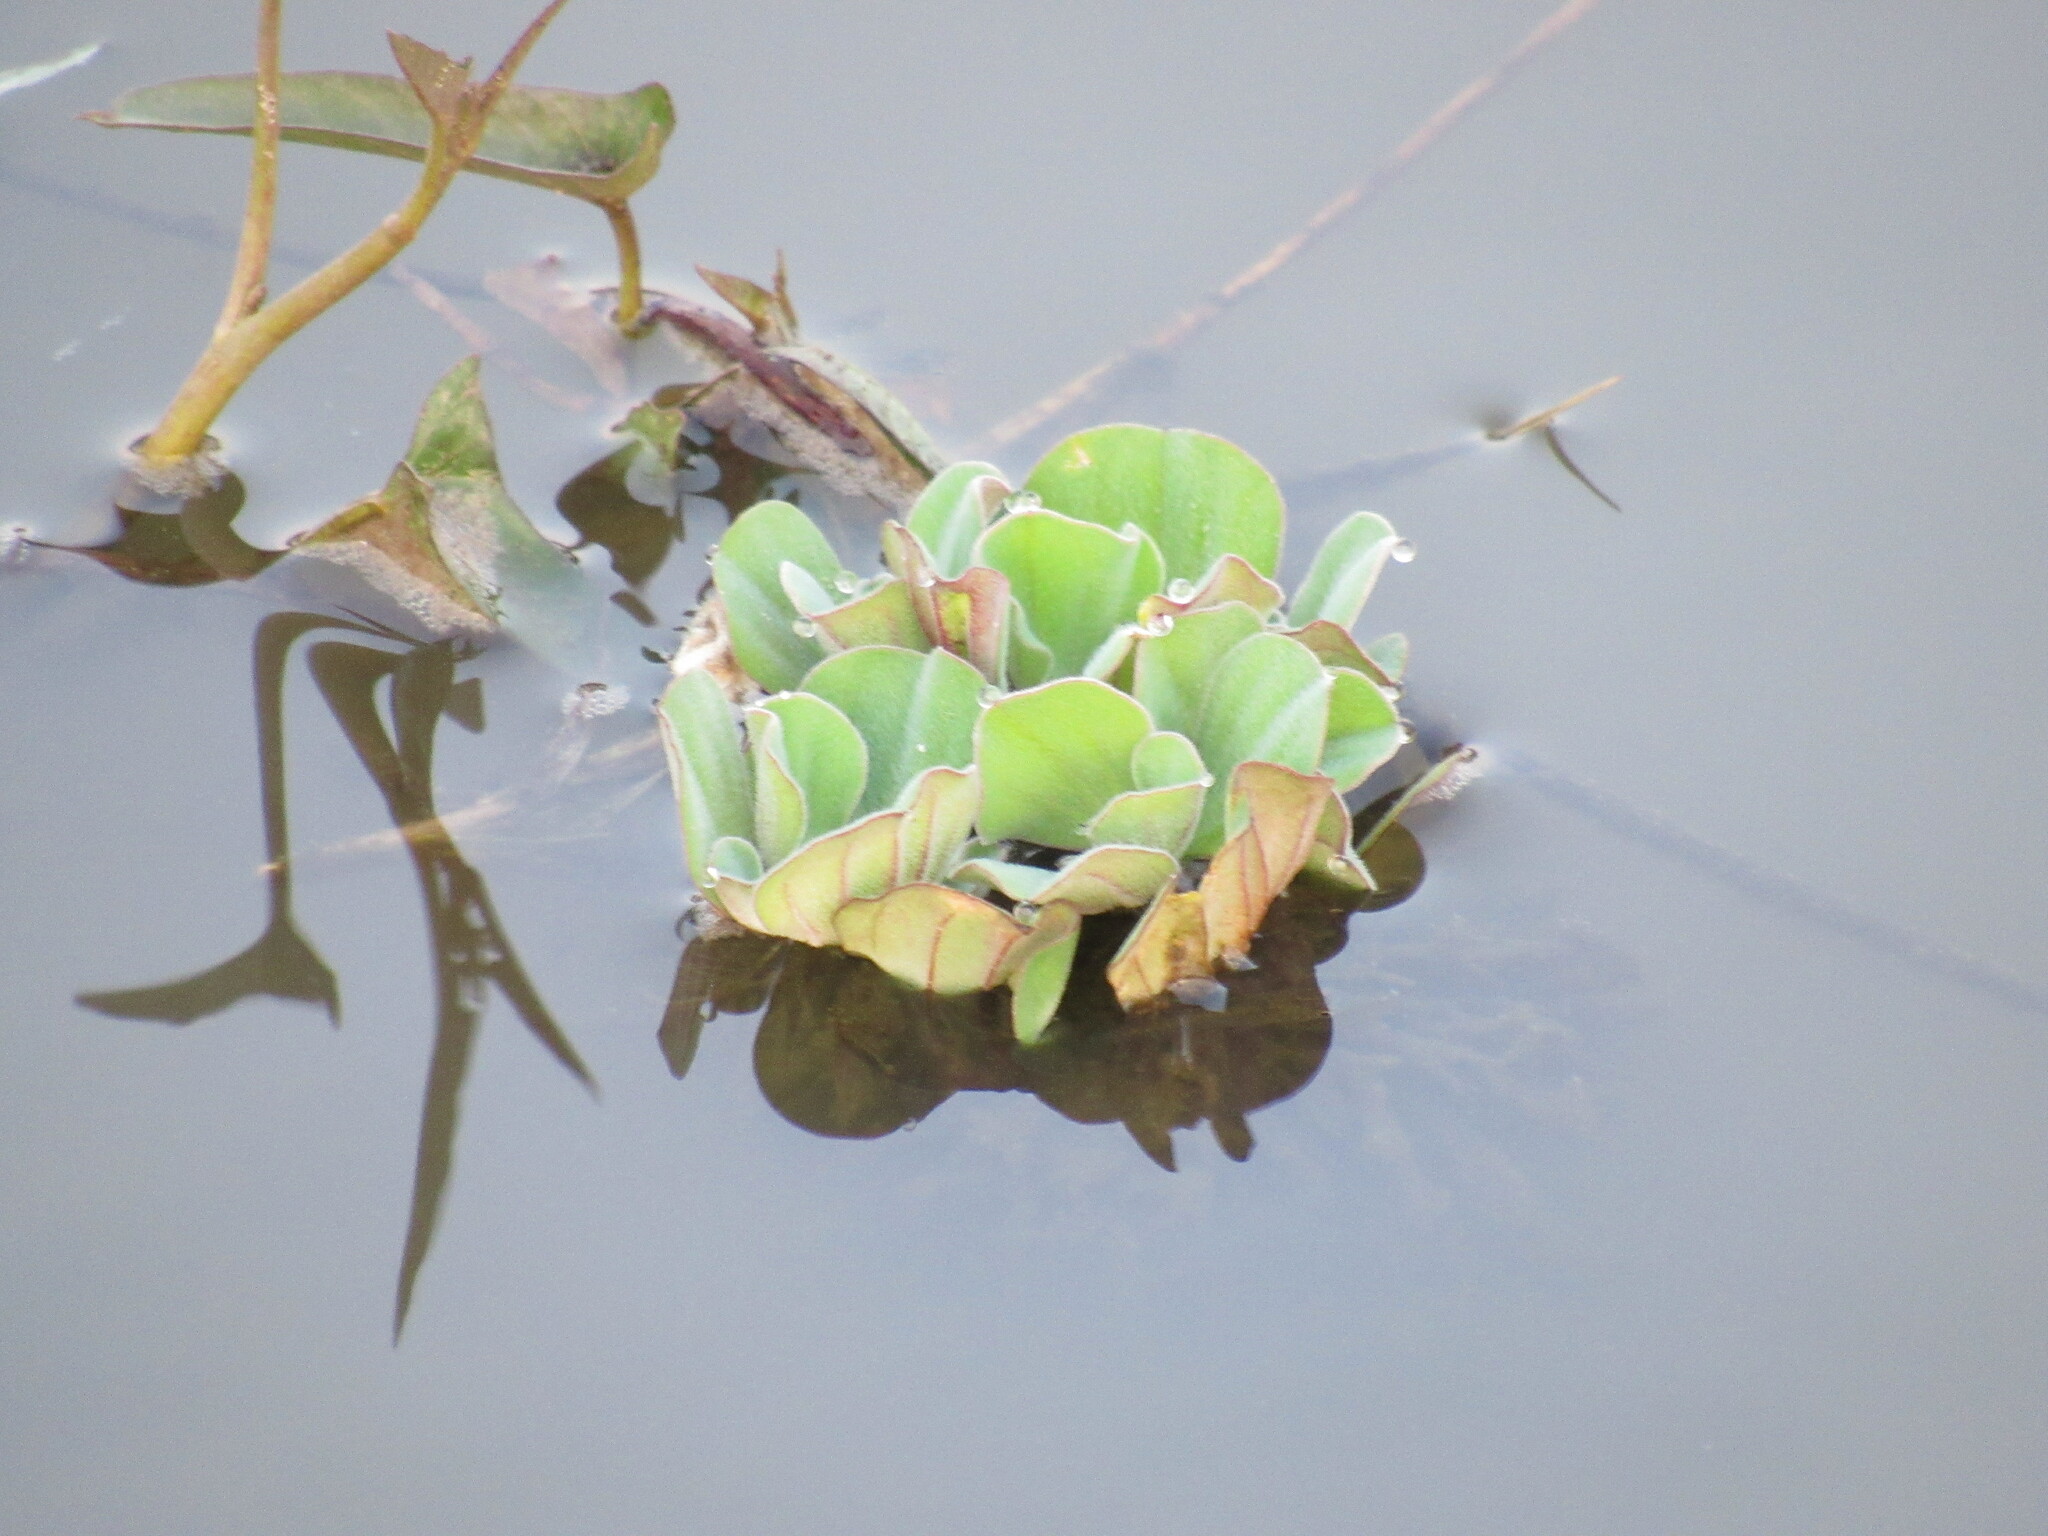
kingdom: Plantae
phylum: Tracheophyta
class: Liliopsida
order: Alismatales
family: Araceae
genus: Pistia
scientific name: Pistia stratiotes
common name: Water lettuce
